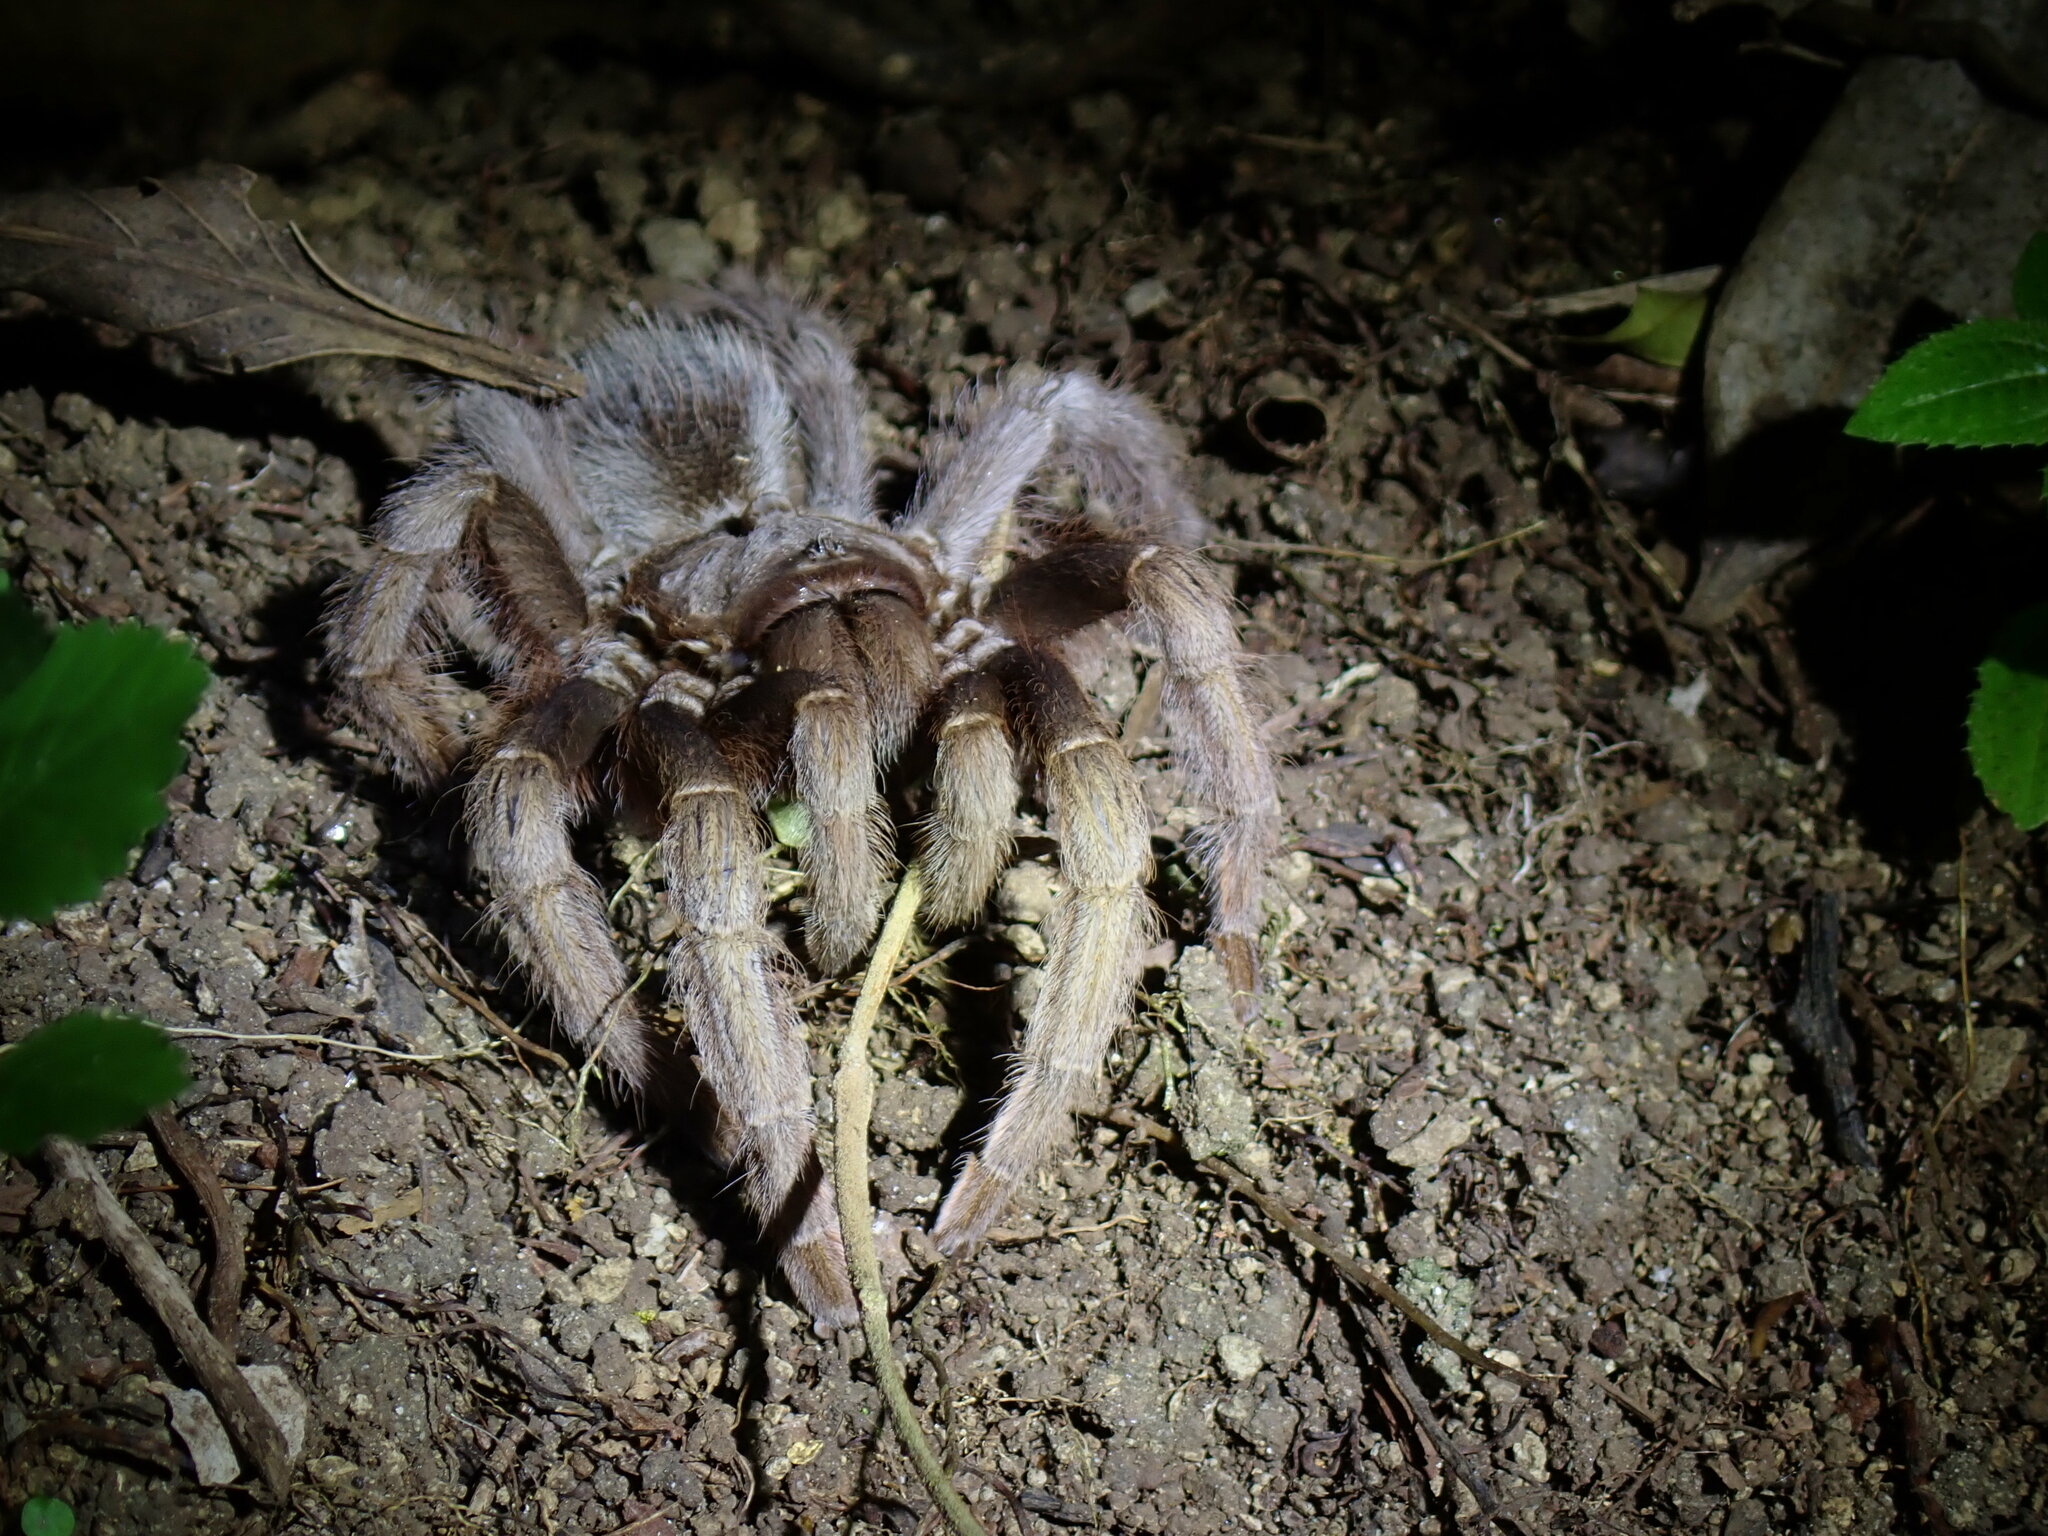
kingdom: Animalia
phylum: Arthropoda
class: Arachnida
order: Araneae
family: Theraphosidae
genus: Sphaerobothria
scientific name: Sphaerobothria hoffmanni
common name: Tarantula spiders
